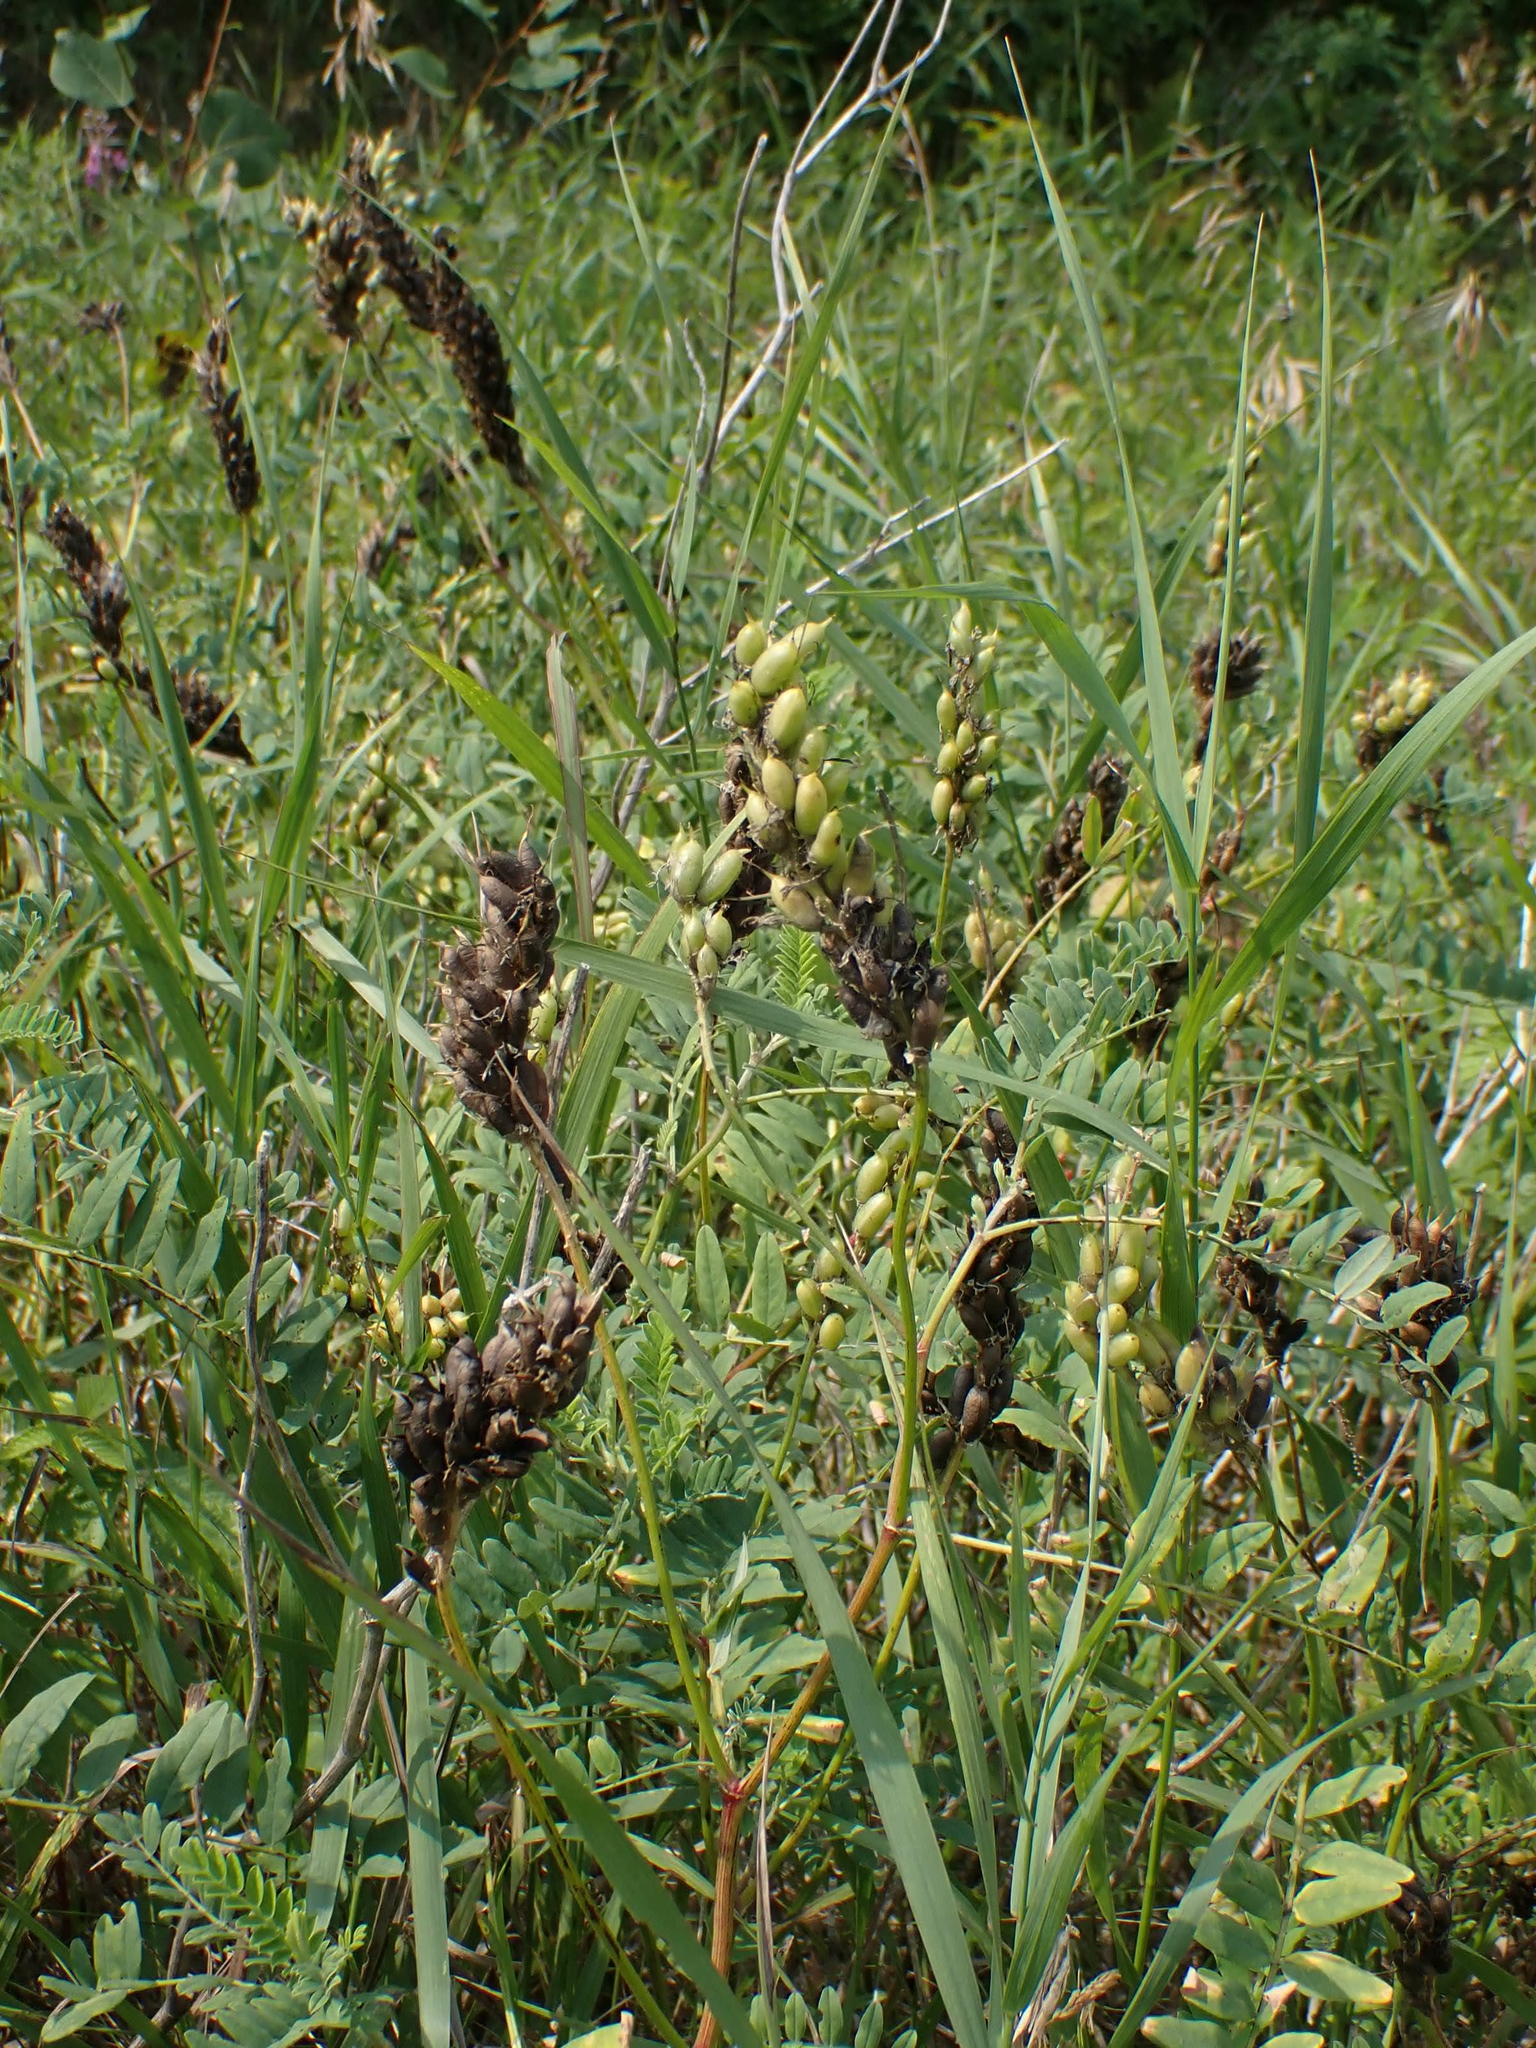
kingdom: Plantae
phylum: Tracheophyta
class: Magnoliopsida
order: Fabales
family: Fabaceae
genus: Astragalus
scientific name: Astragalus canadensis
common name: Canada milk-vetch
